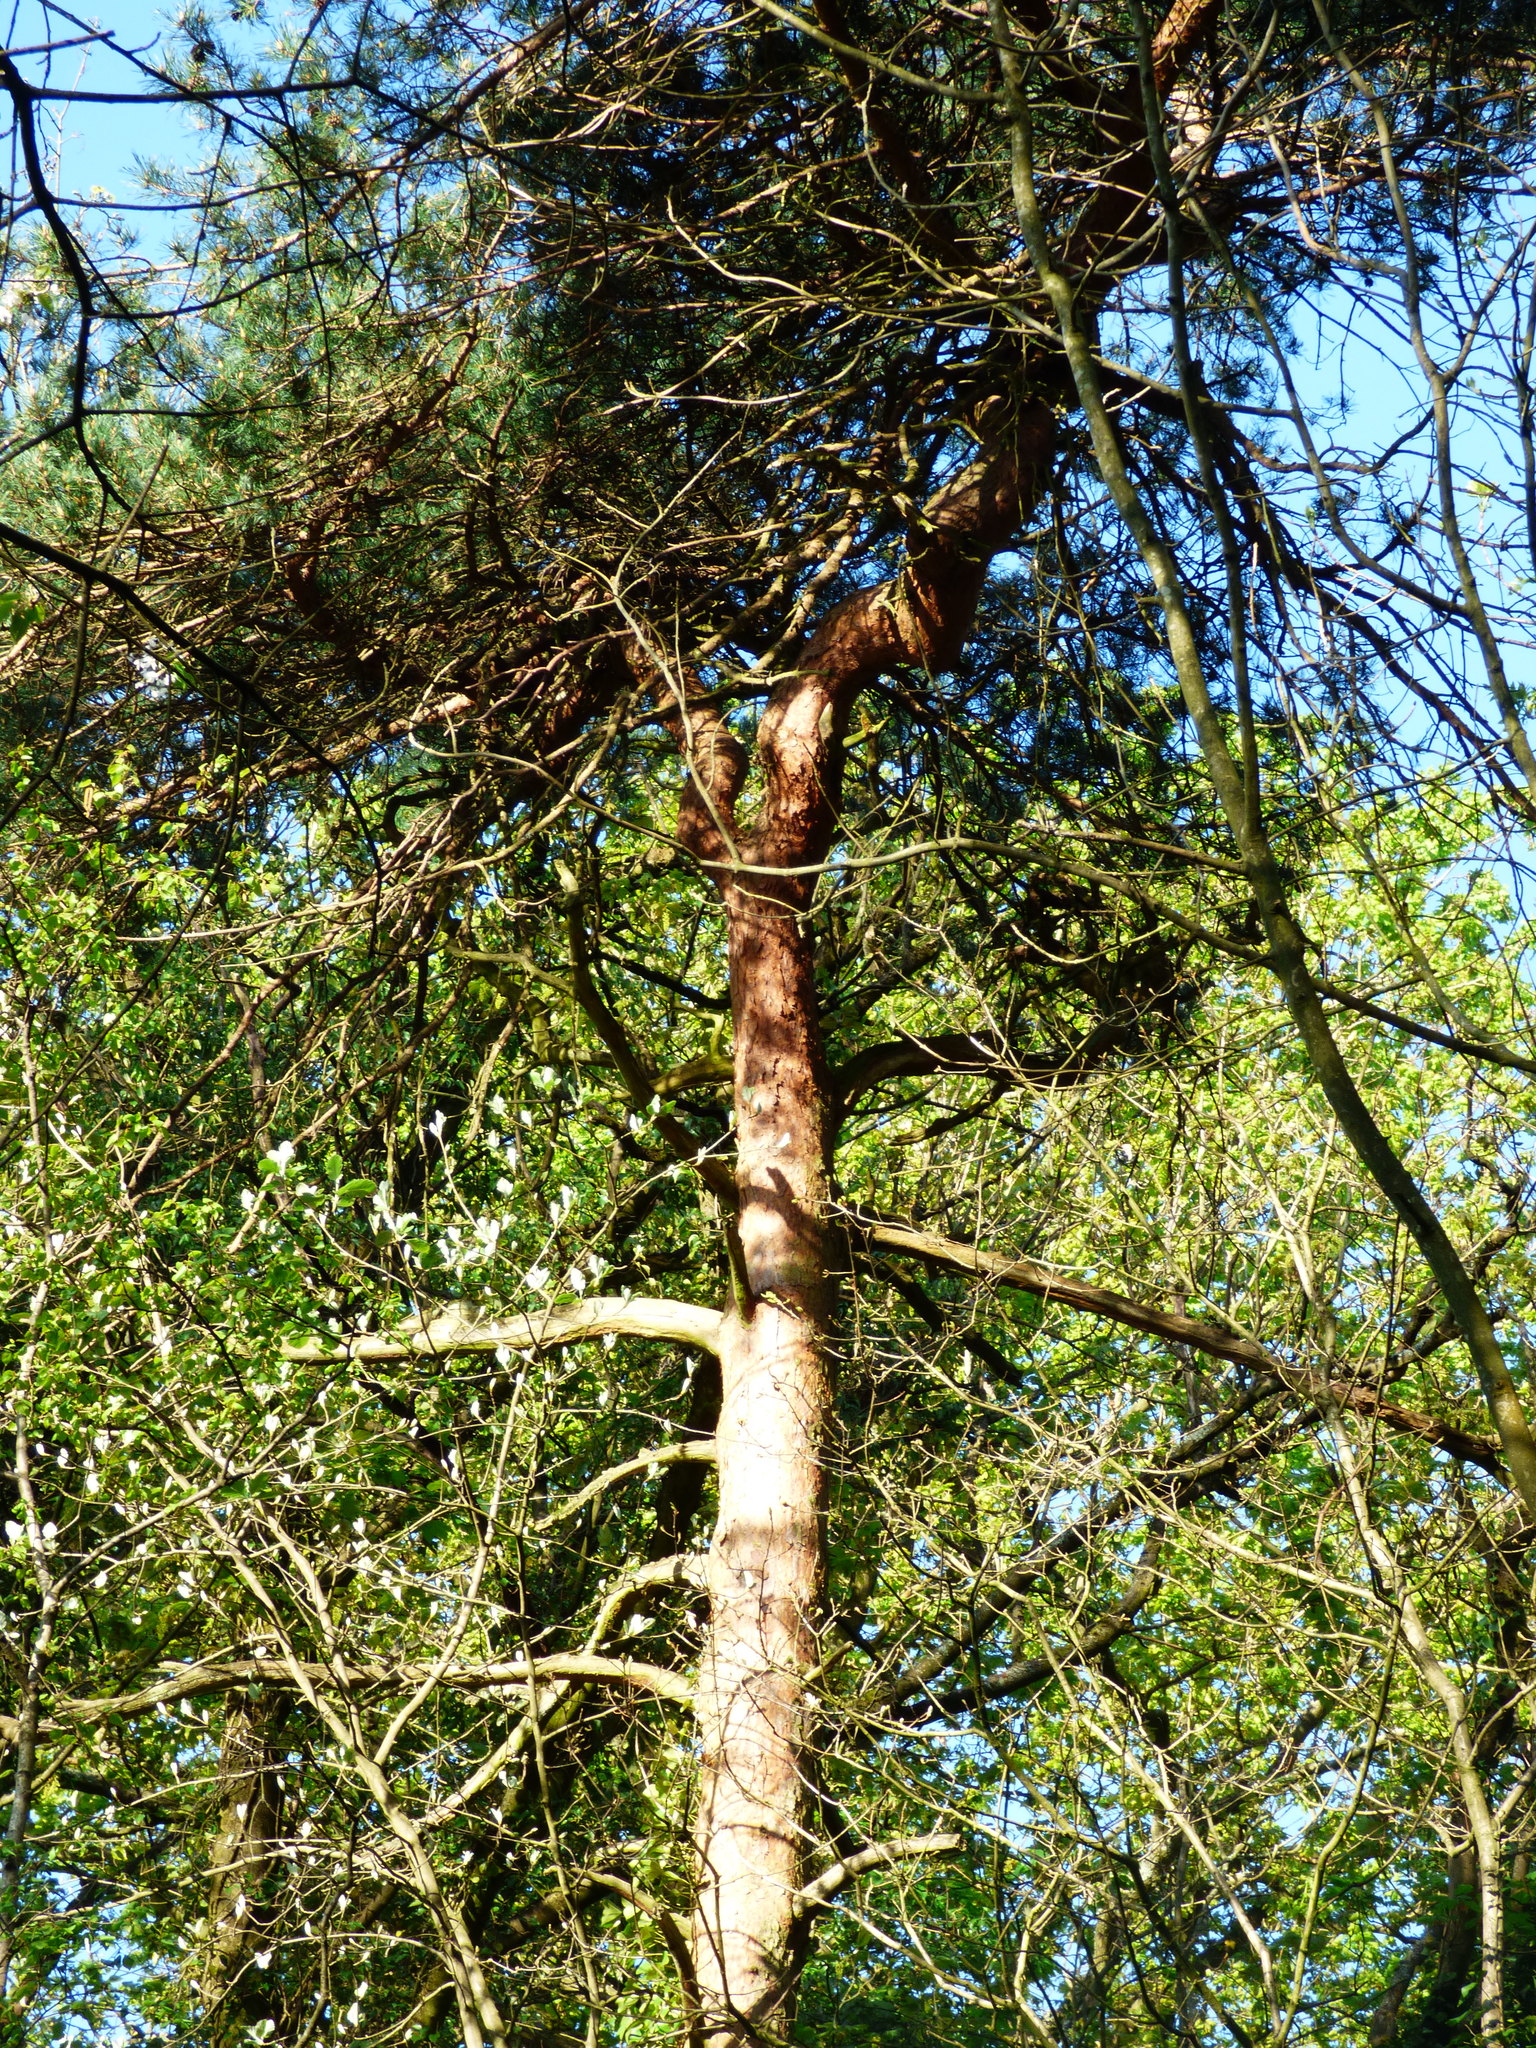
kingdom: Plantae
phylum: Tracheophyta
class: Pinopsida
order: Pinales
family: Pinaceae
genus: Pinus
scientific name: Pinus sylvestris
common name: Scots pine
